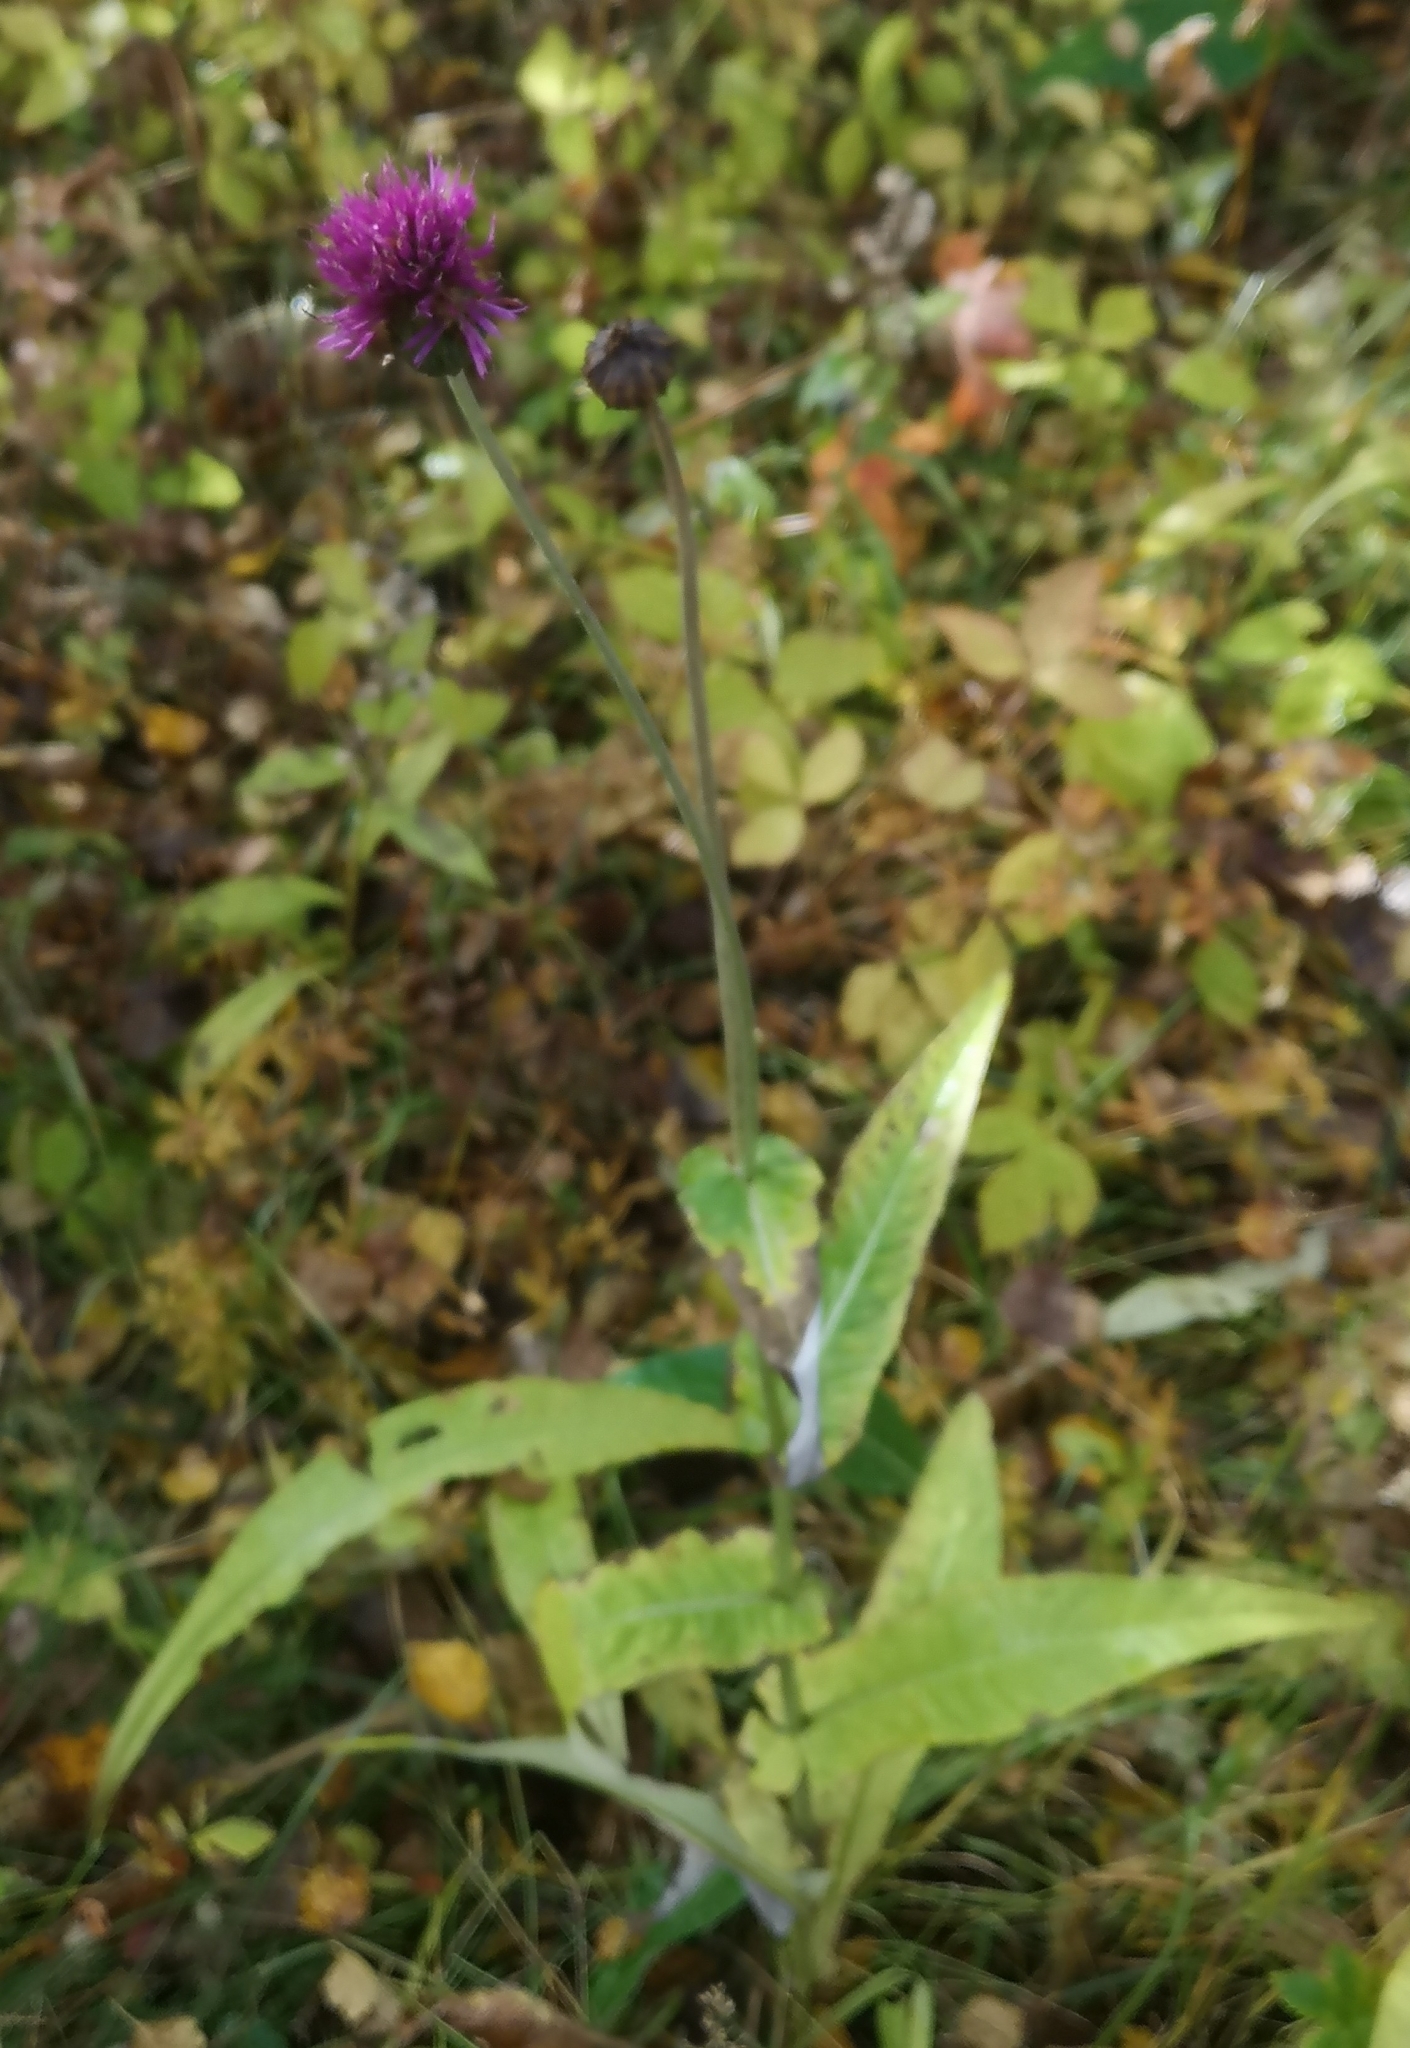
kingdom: Plantae
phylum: Tracheophyta
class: Magnoliopsida
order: Asterales
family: Asteraceae
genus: Cirsium
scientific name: Cirsium heterophyllum
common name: Melancholy thistle
